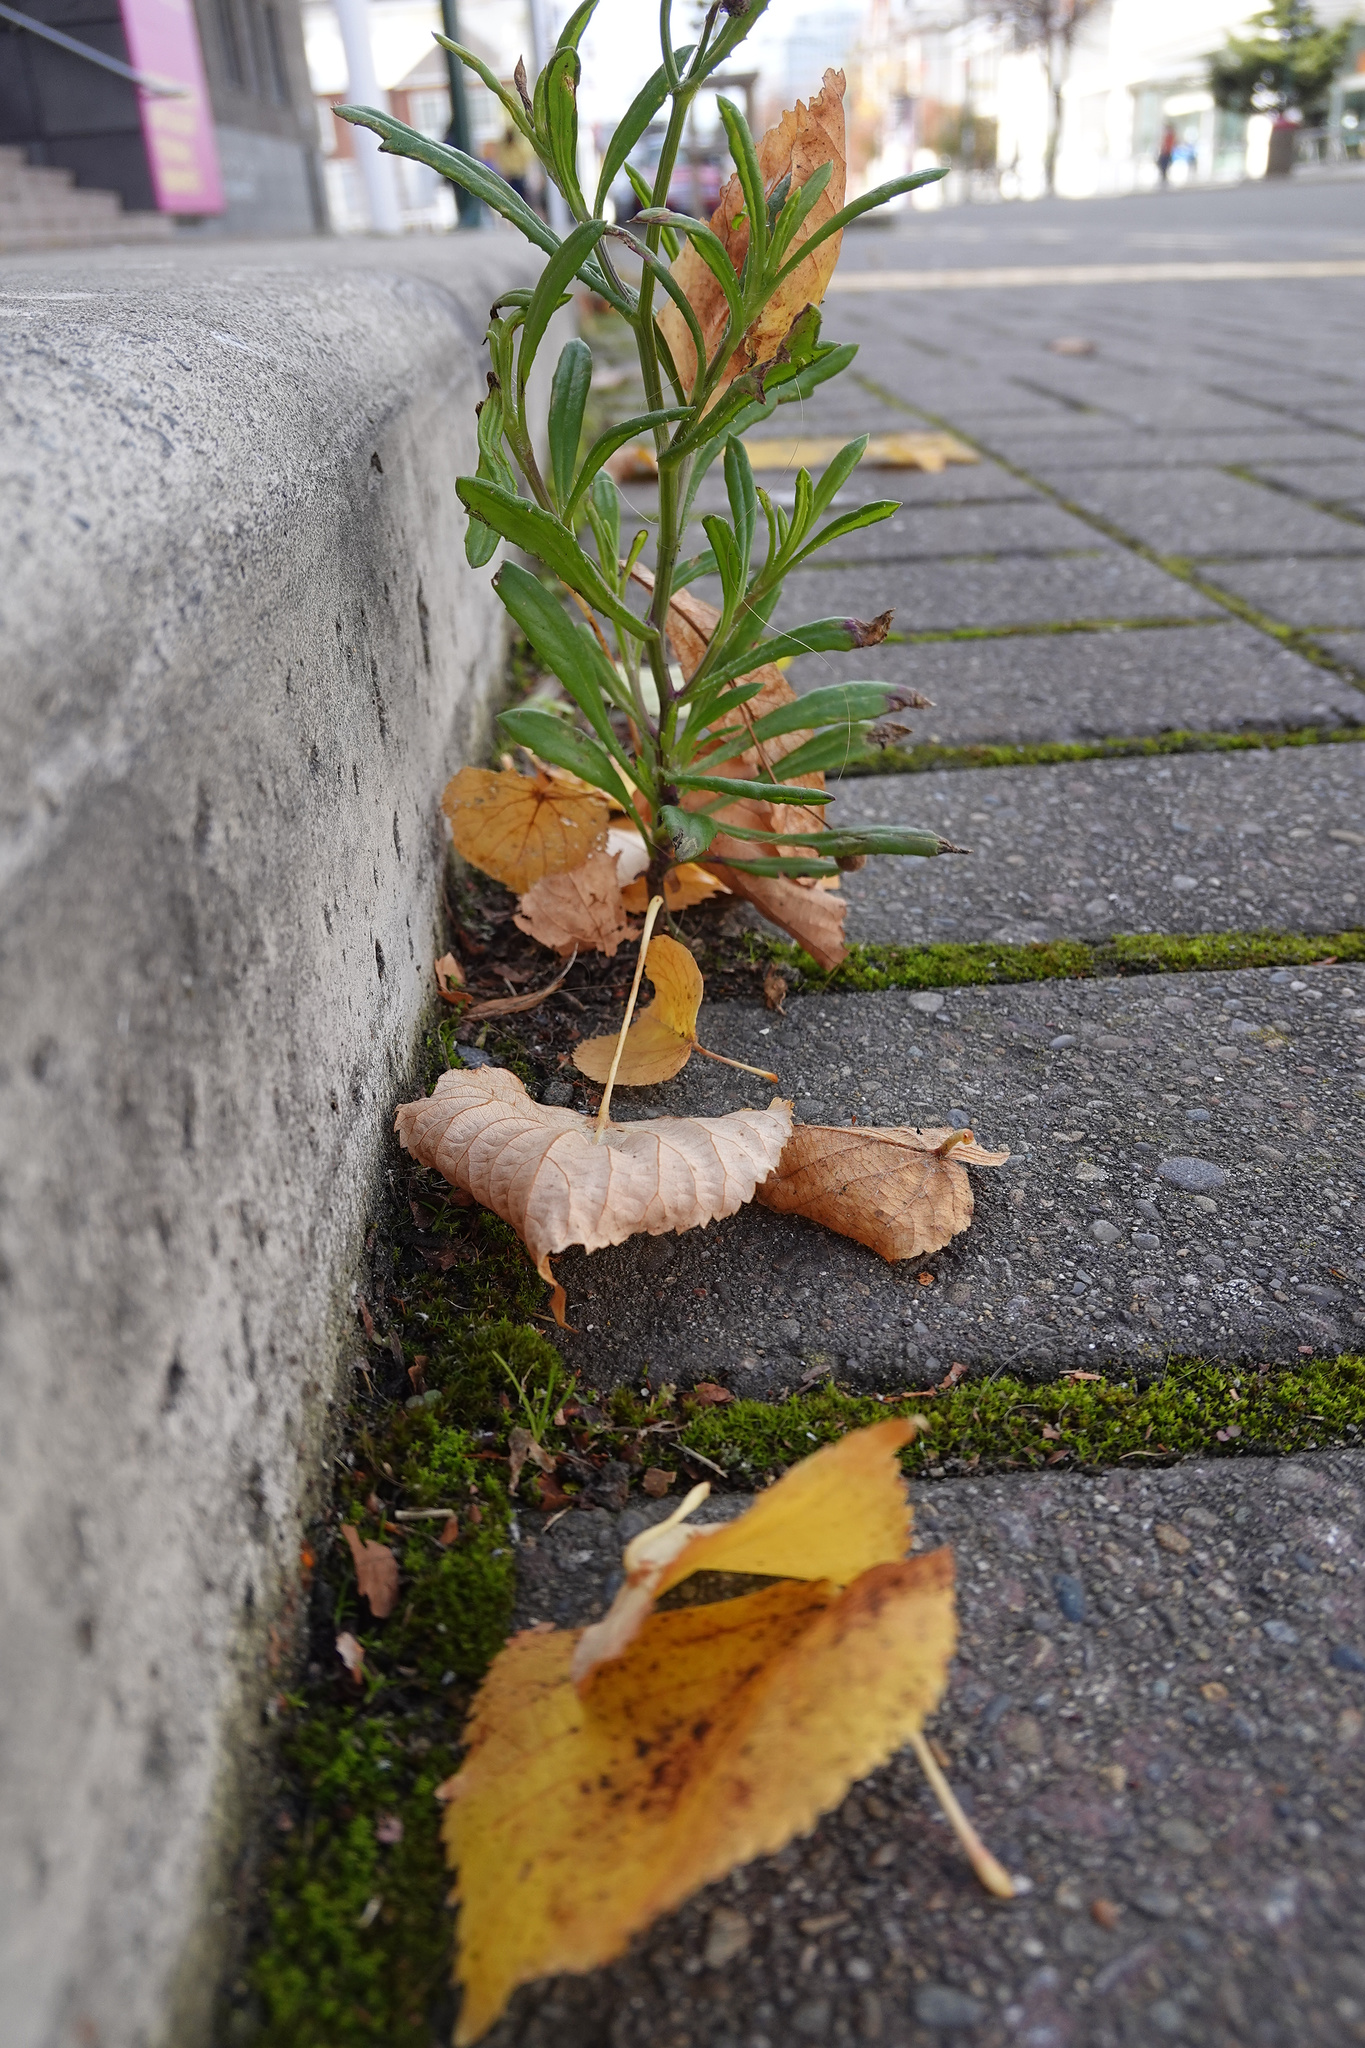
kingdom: Plantae
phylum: Tracheophyta
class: Magnoliopsida
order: Asterales
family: Asteraceae
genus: Senecio
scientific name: Senecio skirrhodon
